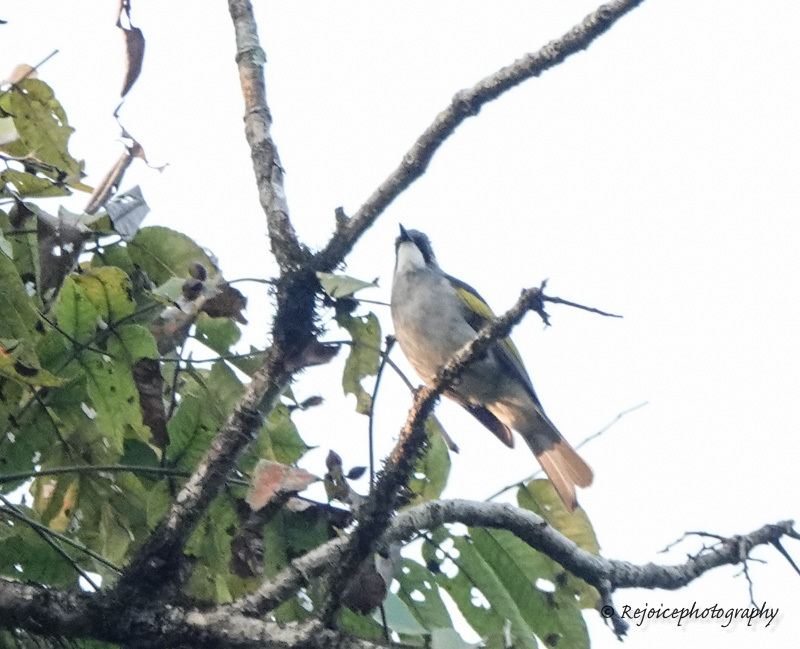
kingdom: Animalia
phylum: Chordata
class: Aves
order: Passeriformes
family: Pycnonotidae
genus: Hemixos
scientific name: Hemixos flavala
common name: Ashy bulbul
